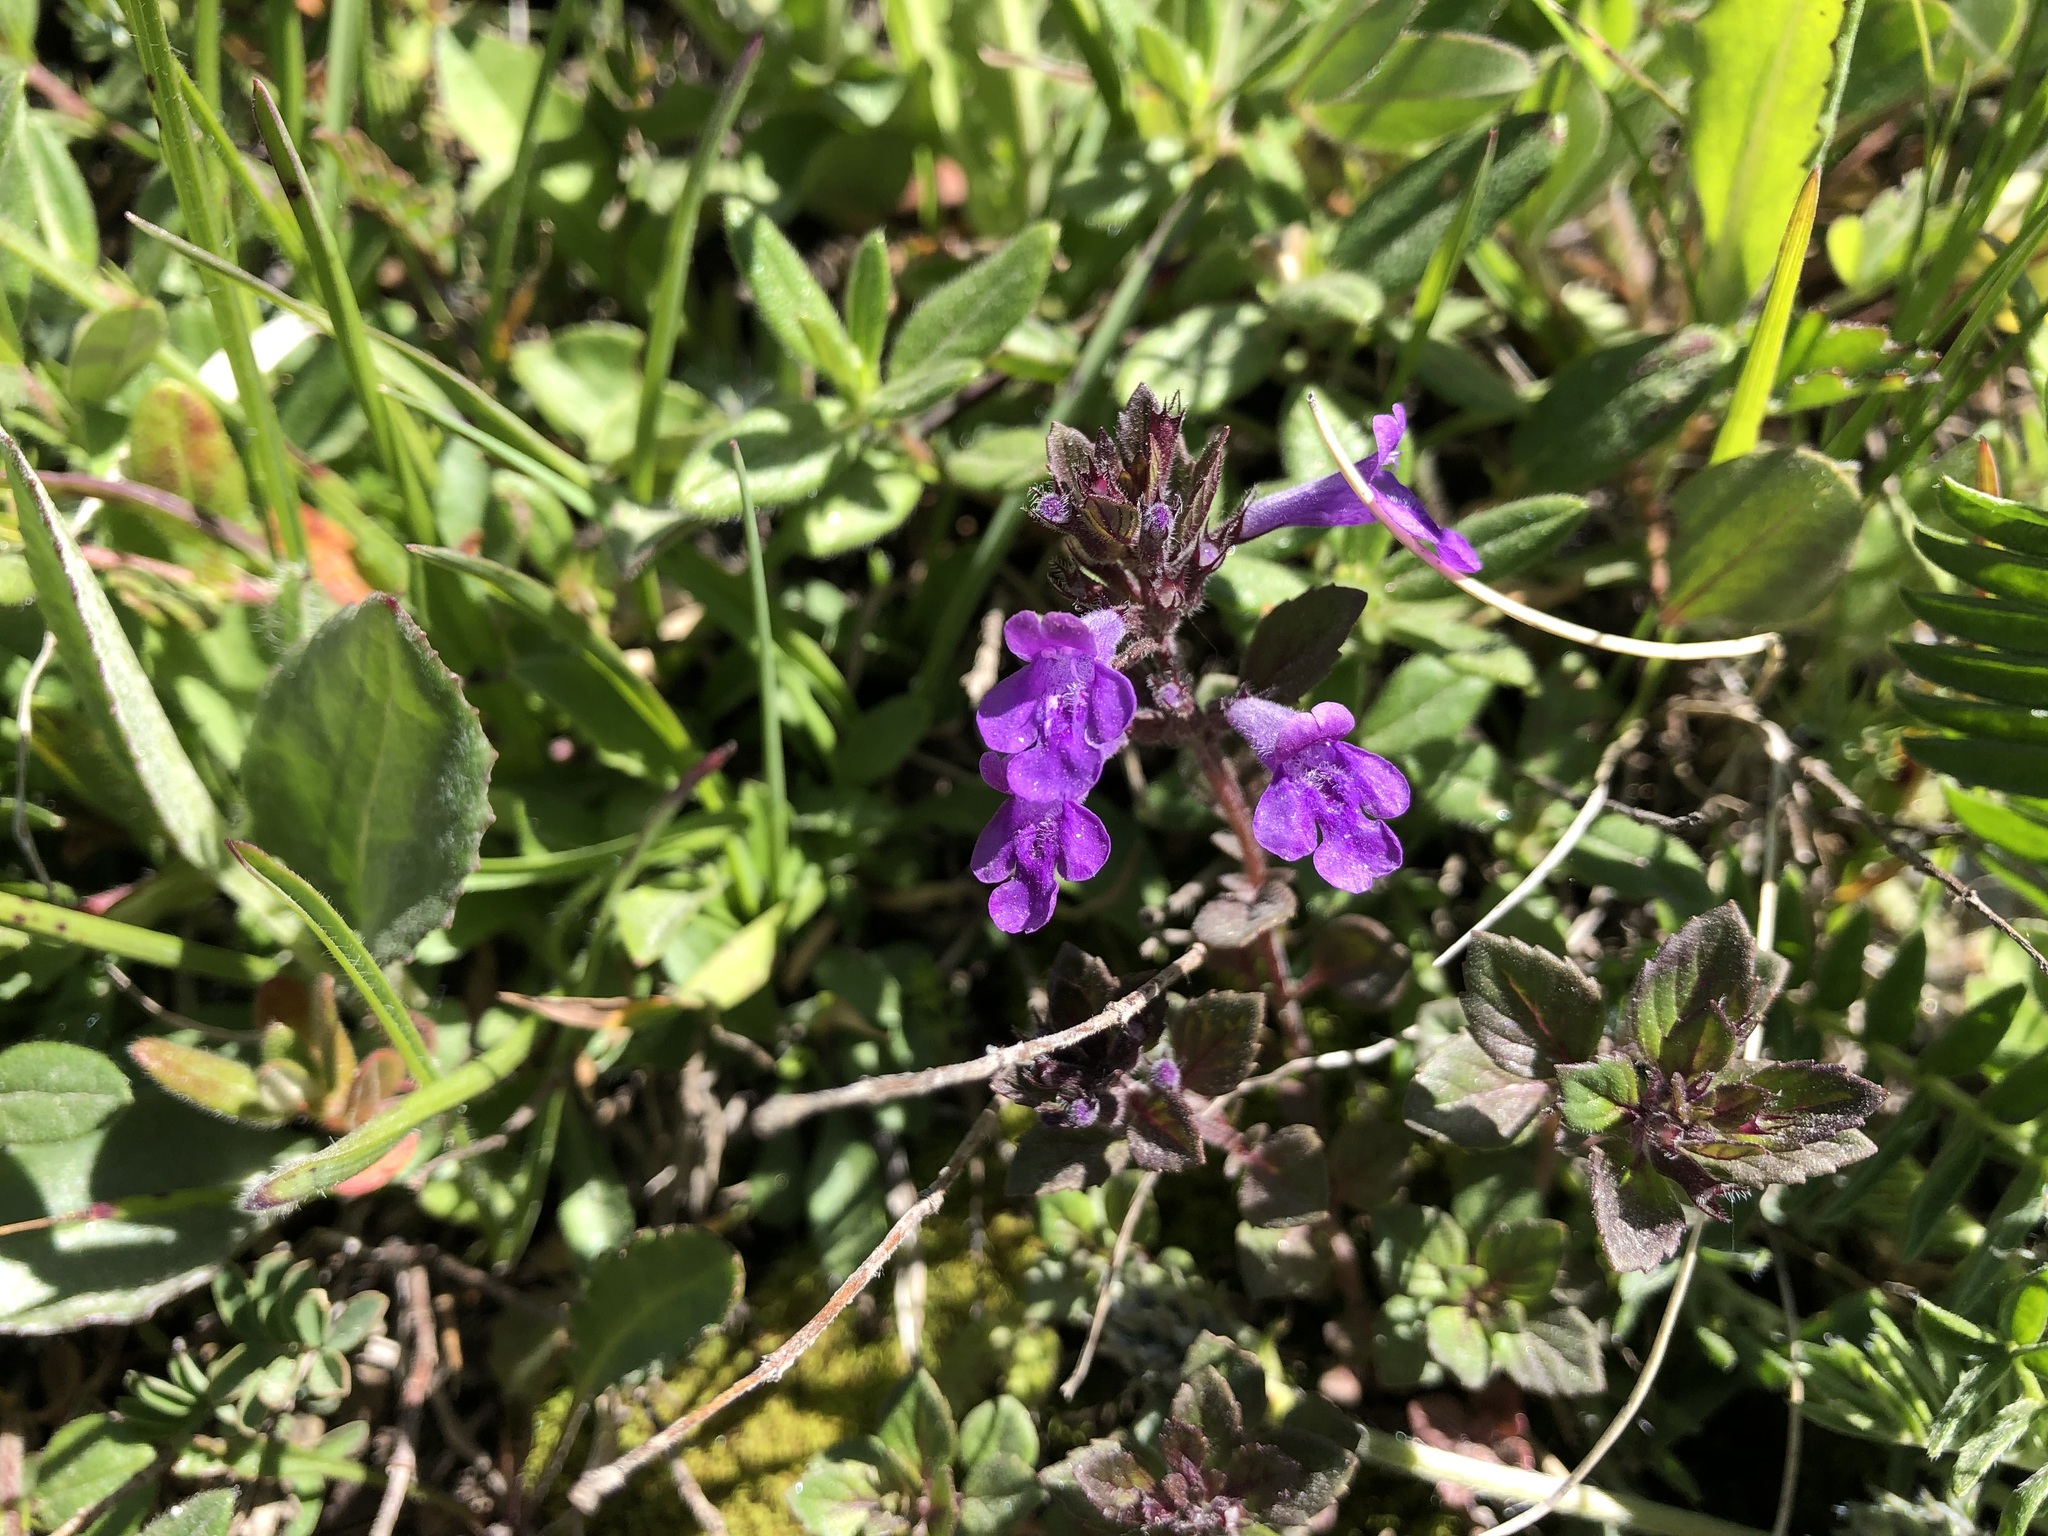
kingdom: Plantae
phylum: Tracheophyta
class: Magnoliopsida
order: Lamiales
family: Lamiaceae
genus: Clinopodium
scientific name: Clinopodium acinos
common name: Basil thyme
